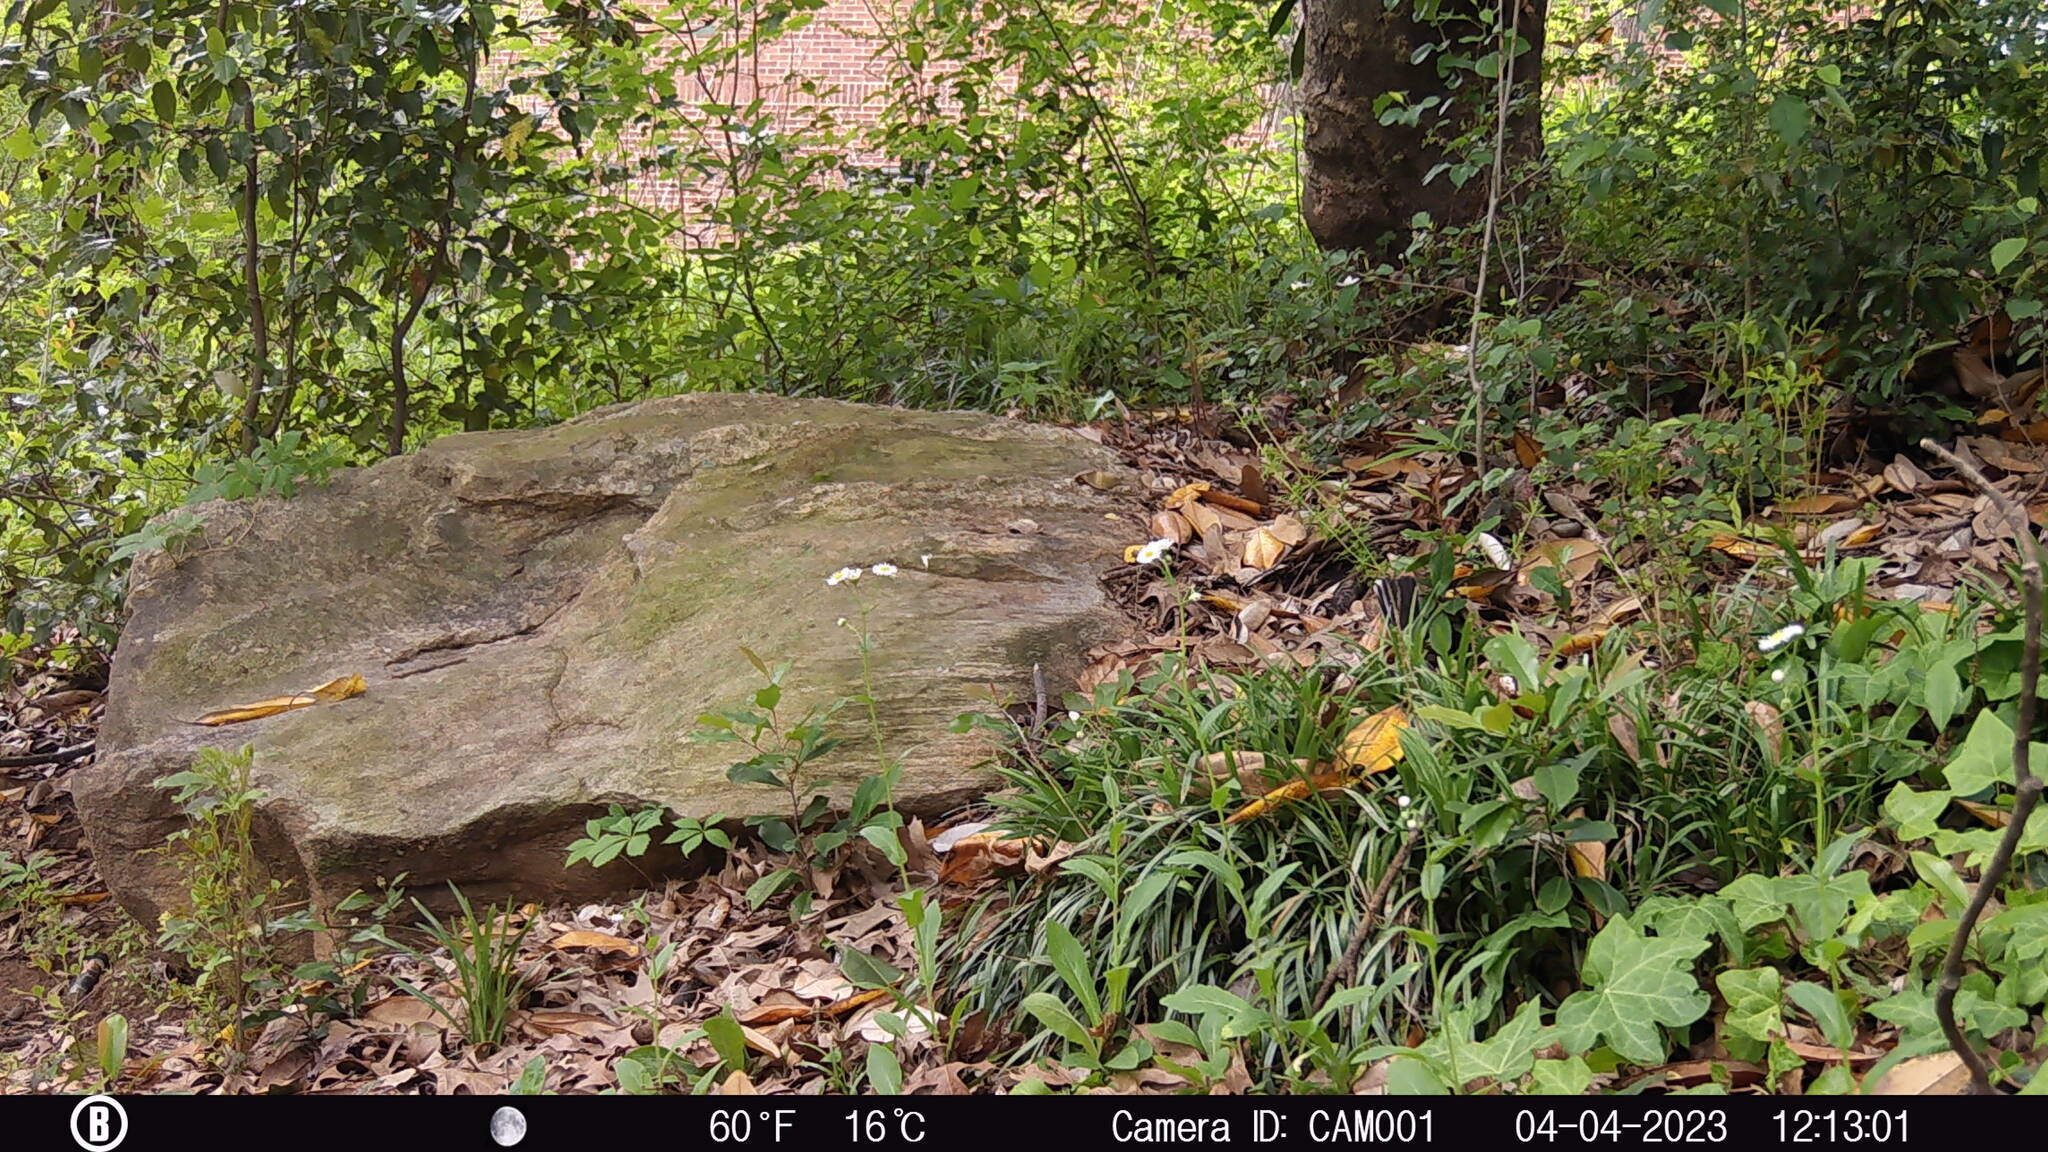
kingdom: Animalia
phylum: Chordata
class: Aves
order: Passeriformes
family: Mimidae
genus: Mimus
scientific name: Mimus polyglottos
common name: Northern mockingbird
